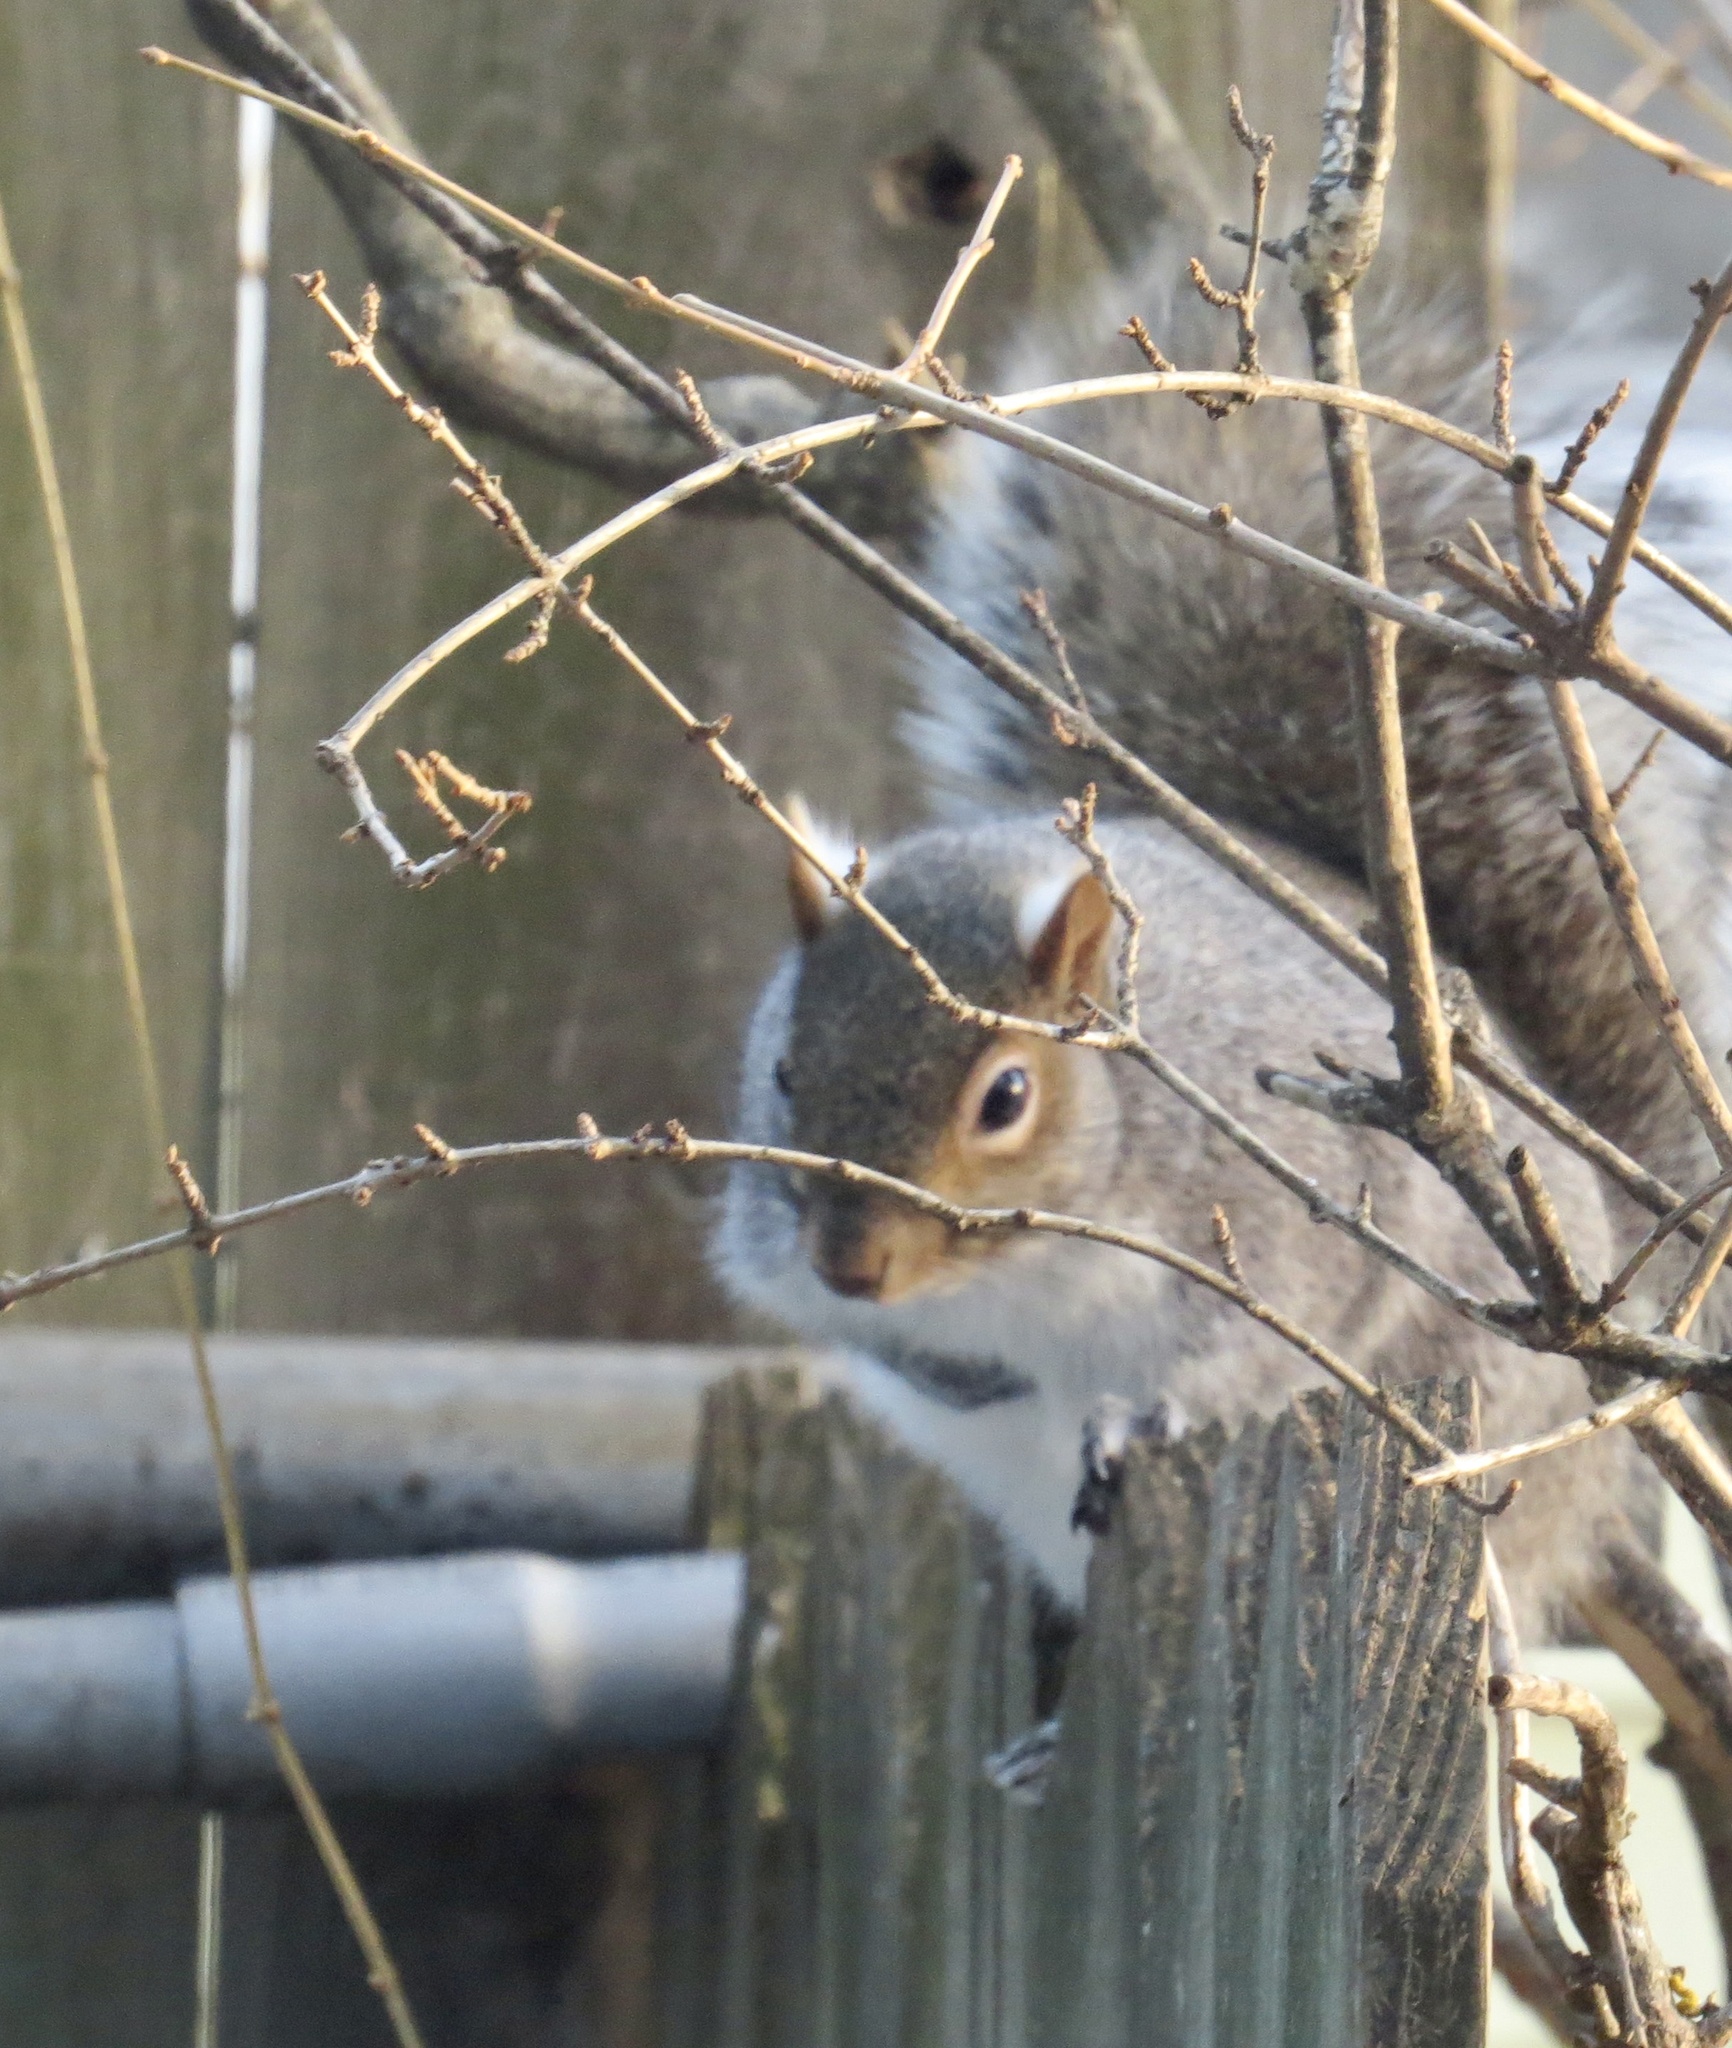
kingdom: Animalia
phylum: Chordata
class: Mammalia
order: Rodentia
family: Sciuridae
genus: Sciurus
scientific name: Sciurus carolinensis
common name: Eastern gray squirrel
